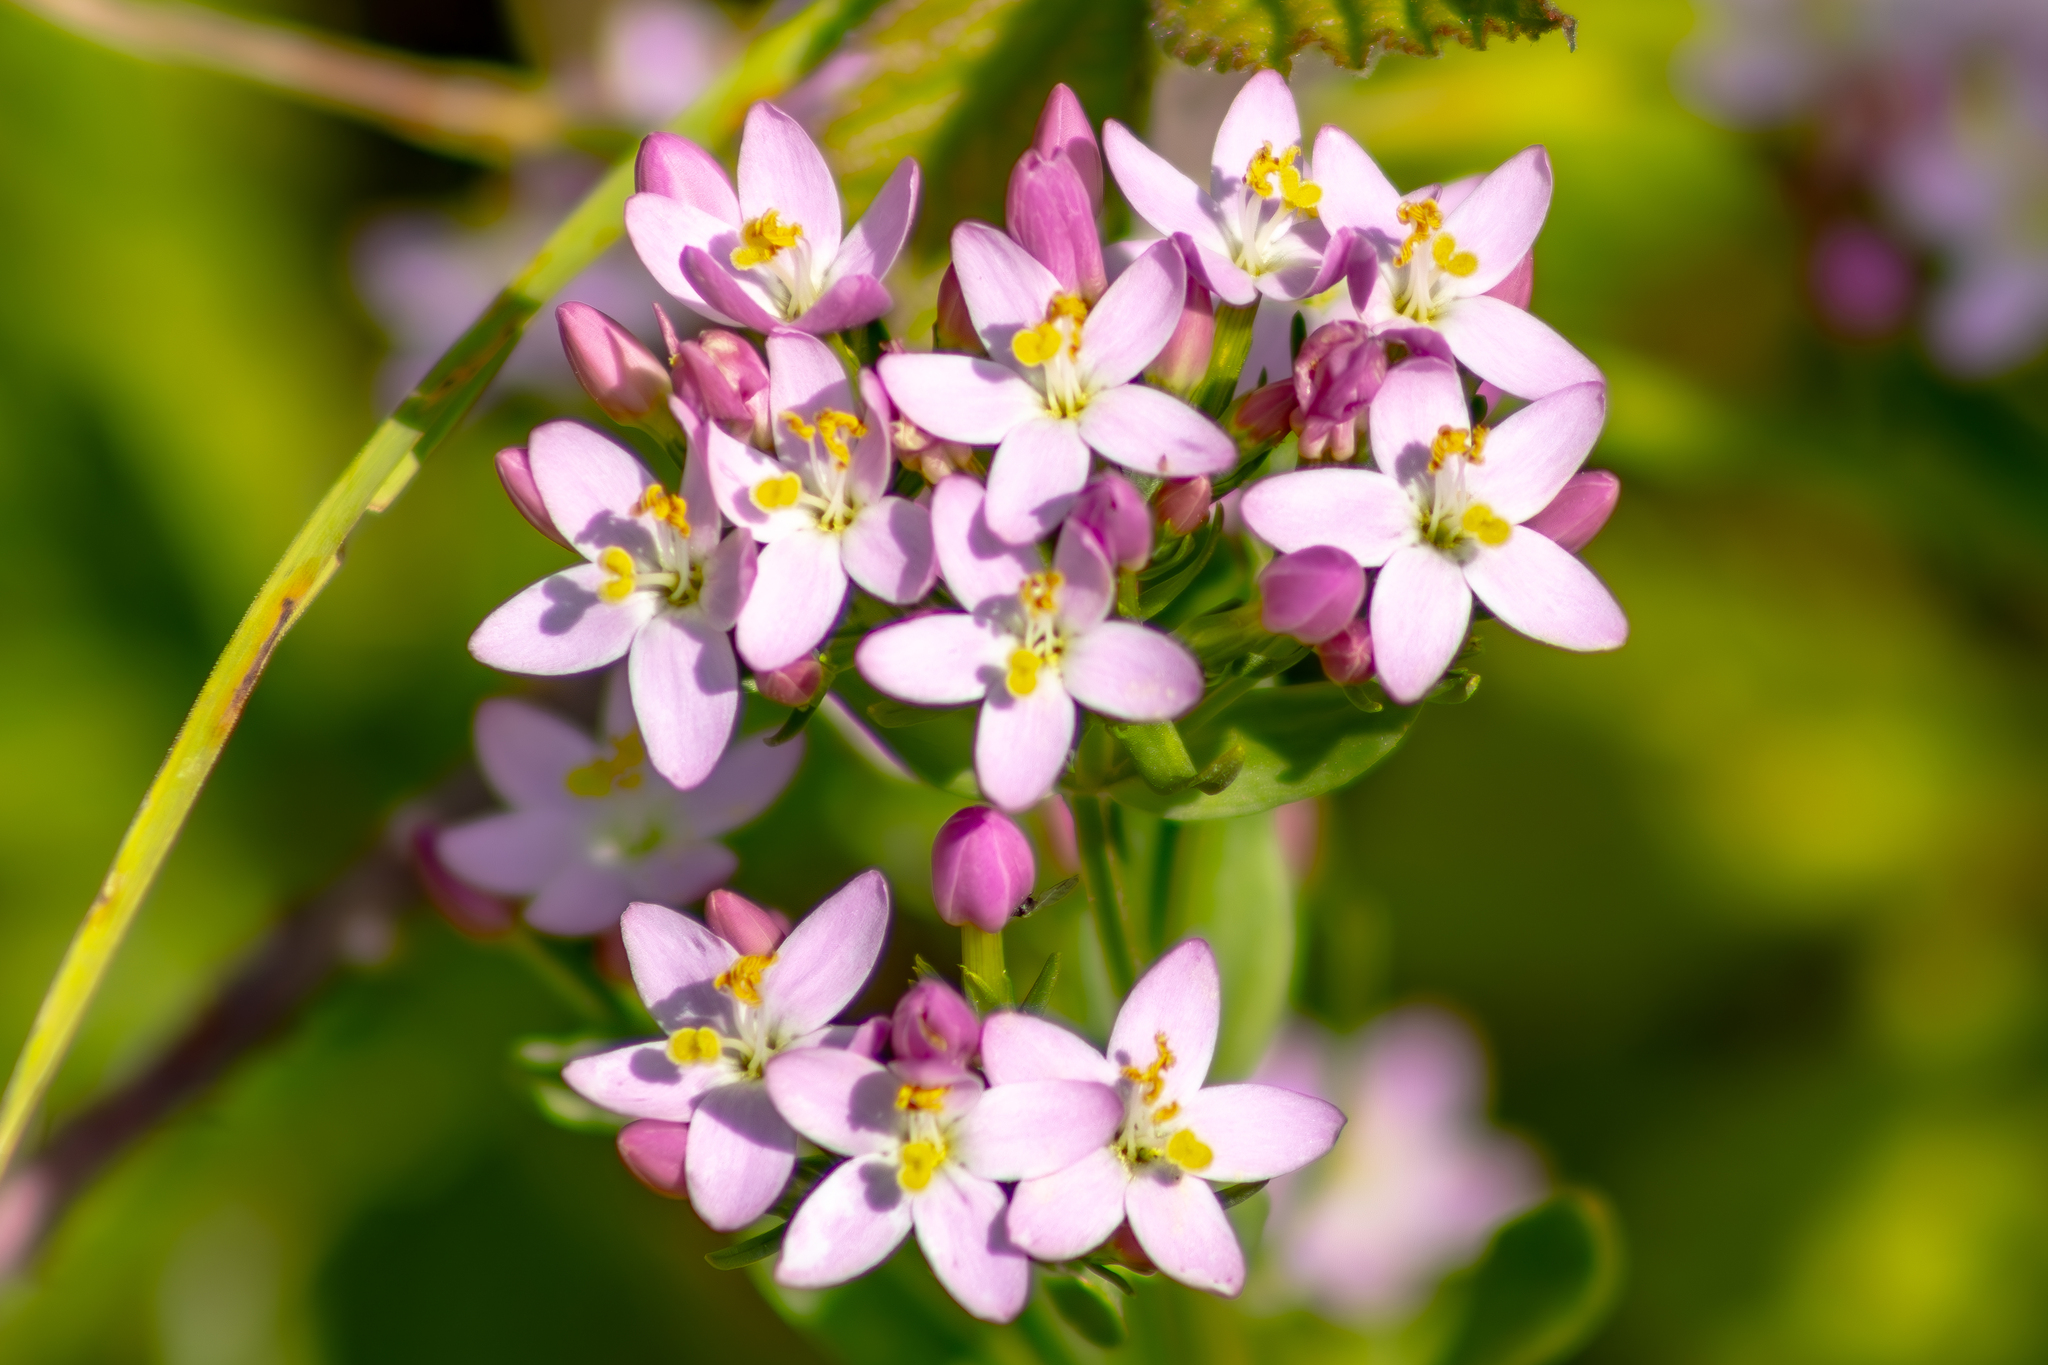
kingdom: Plantae
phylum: Tracheophyta
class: Magnoliopsida
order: Gentianales
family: Gentianaceae
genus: Centaurium
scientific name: Centaurium erythraea
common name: Common centaury
